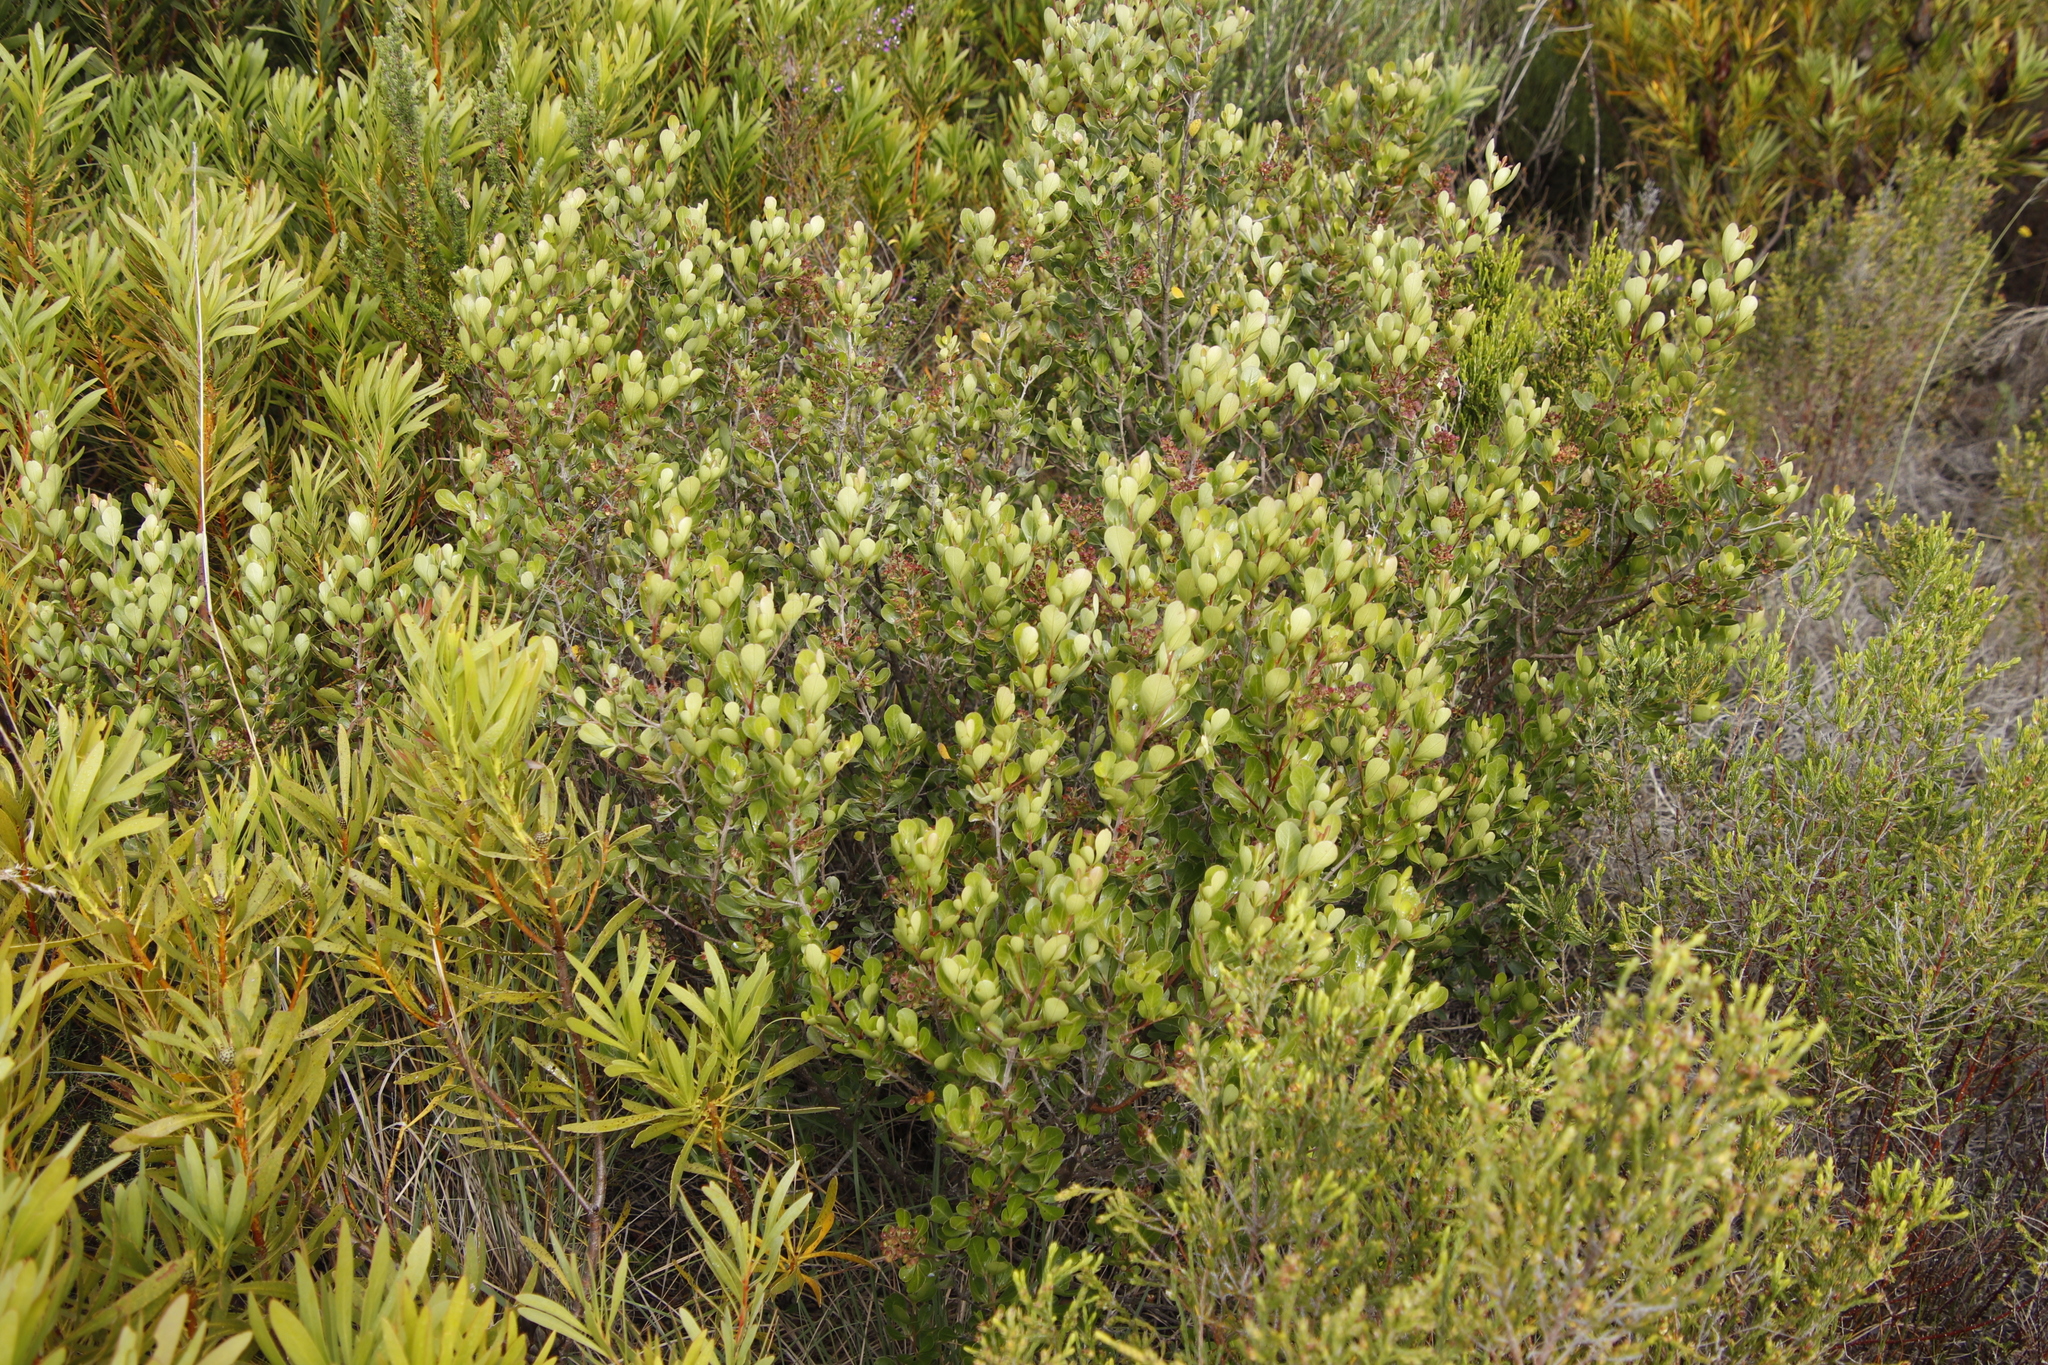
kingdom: Plantae
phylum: Tracheophyta
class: Magnoliopsida
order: Sapindales
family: Anacardiaceae
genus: Searsia
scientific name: Searsia lucida
